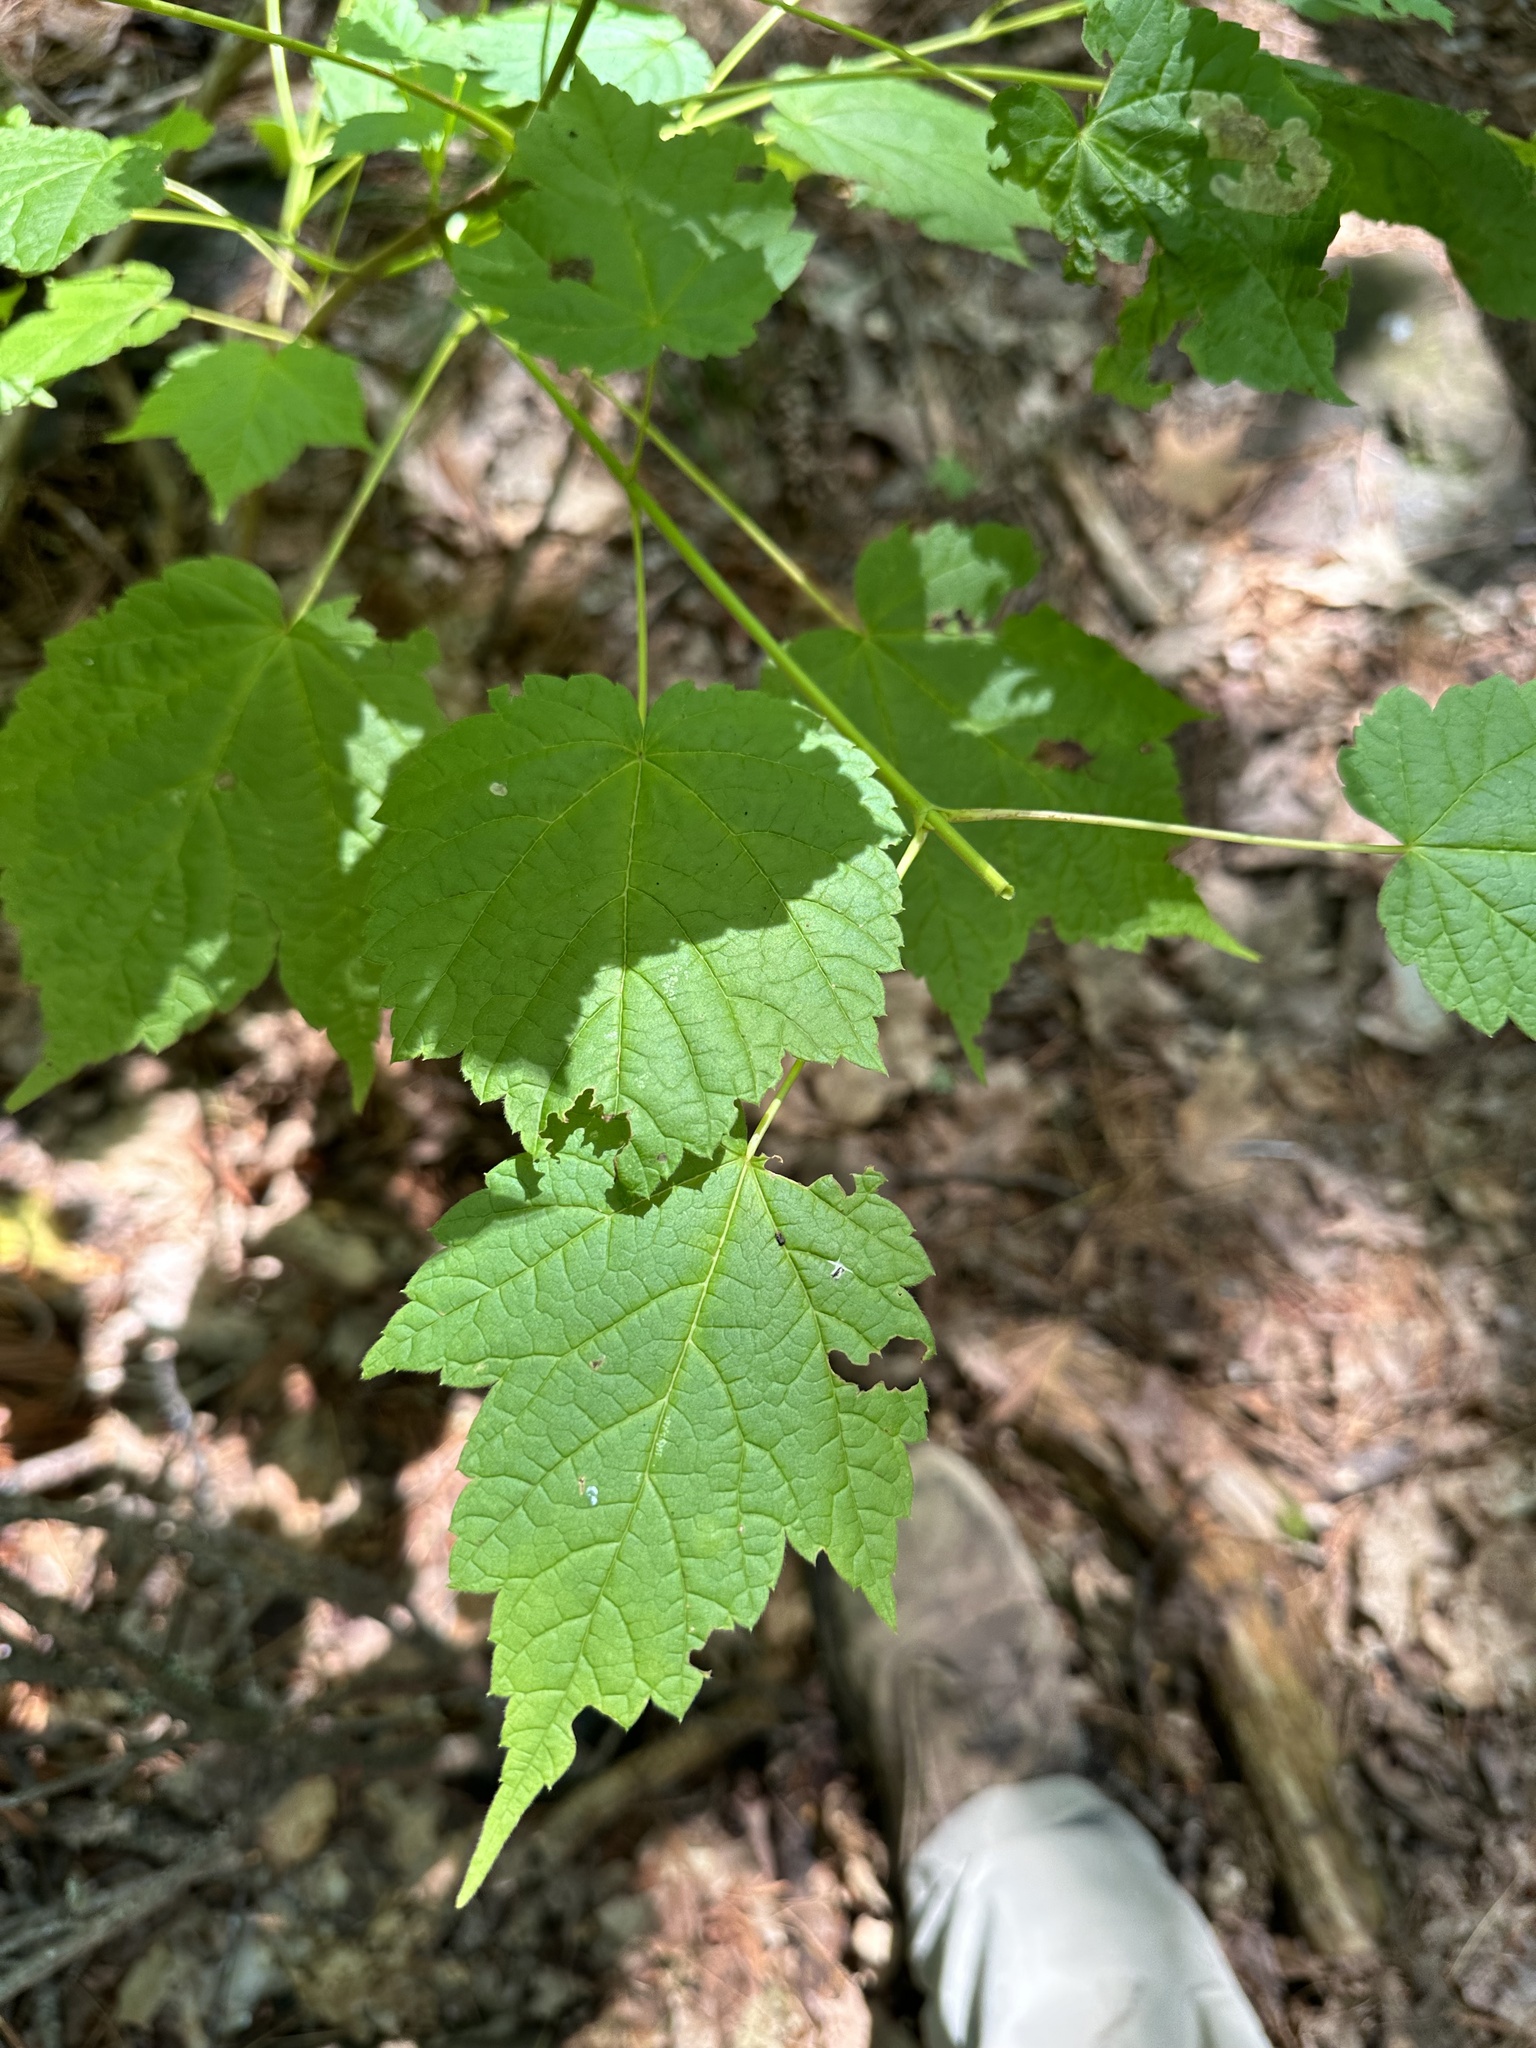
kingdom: Plantae
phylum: Tracheophyta
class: Magnoliopsida
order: Sapindales
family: Sapindaceae
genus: Acer
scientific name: Acer spicatum
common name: Mountain maple
